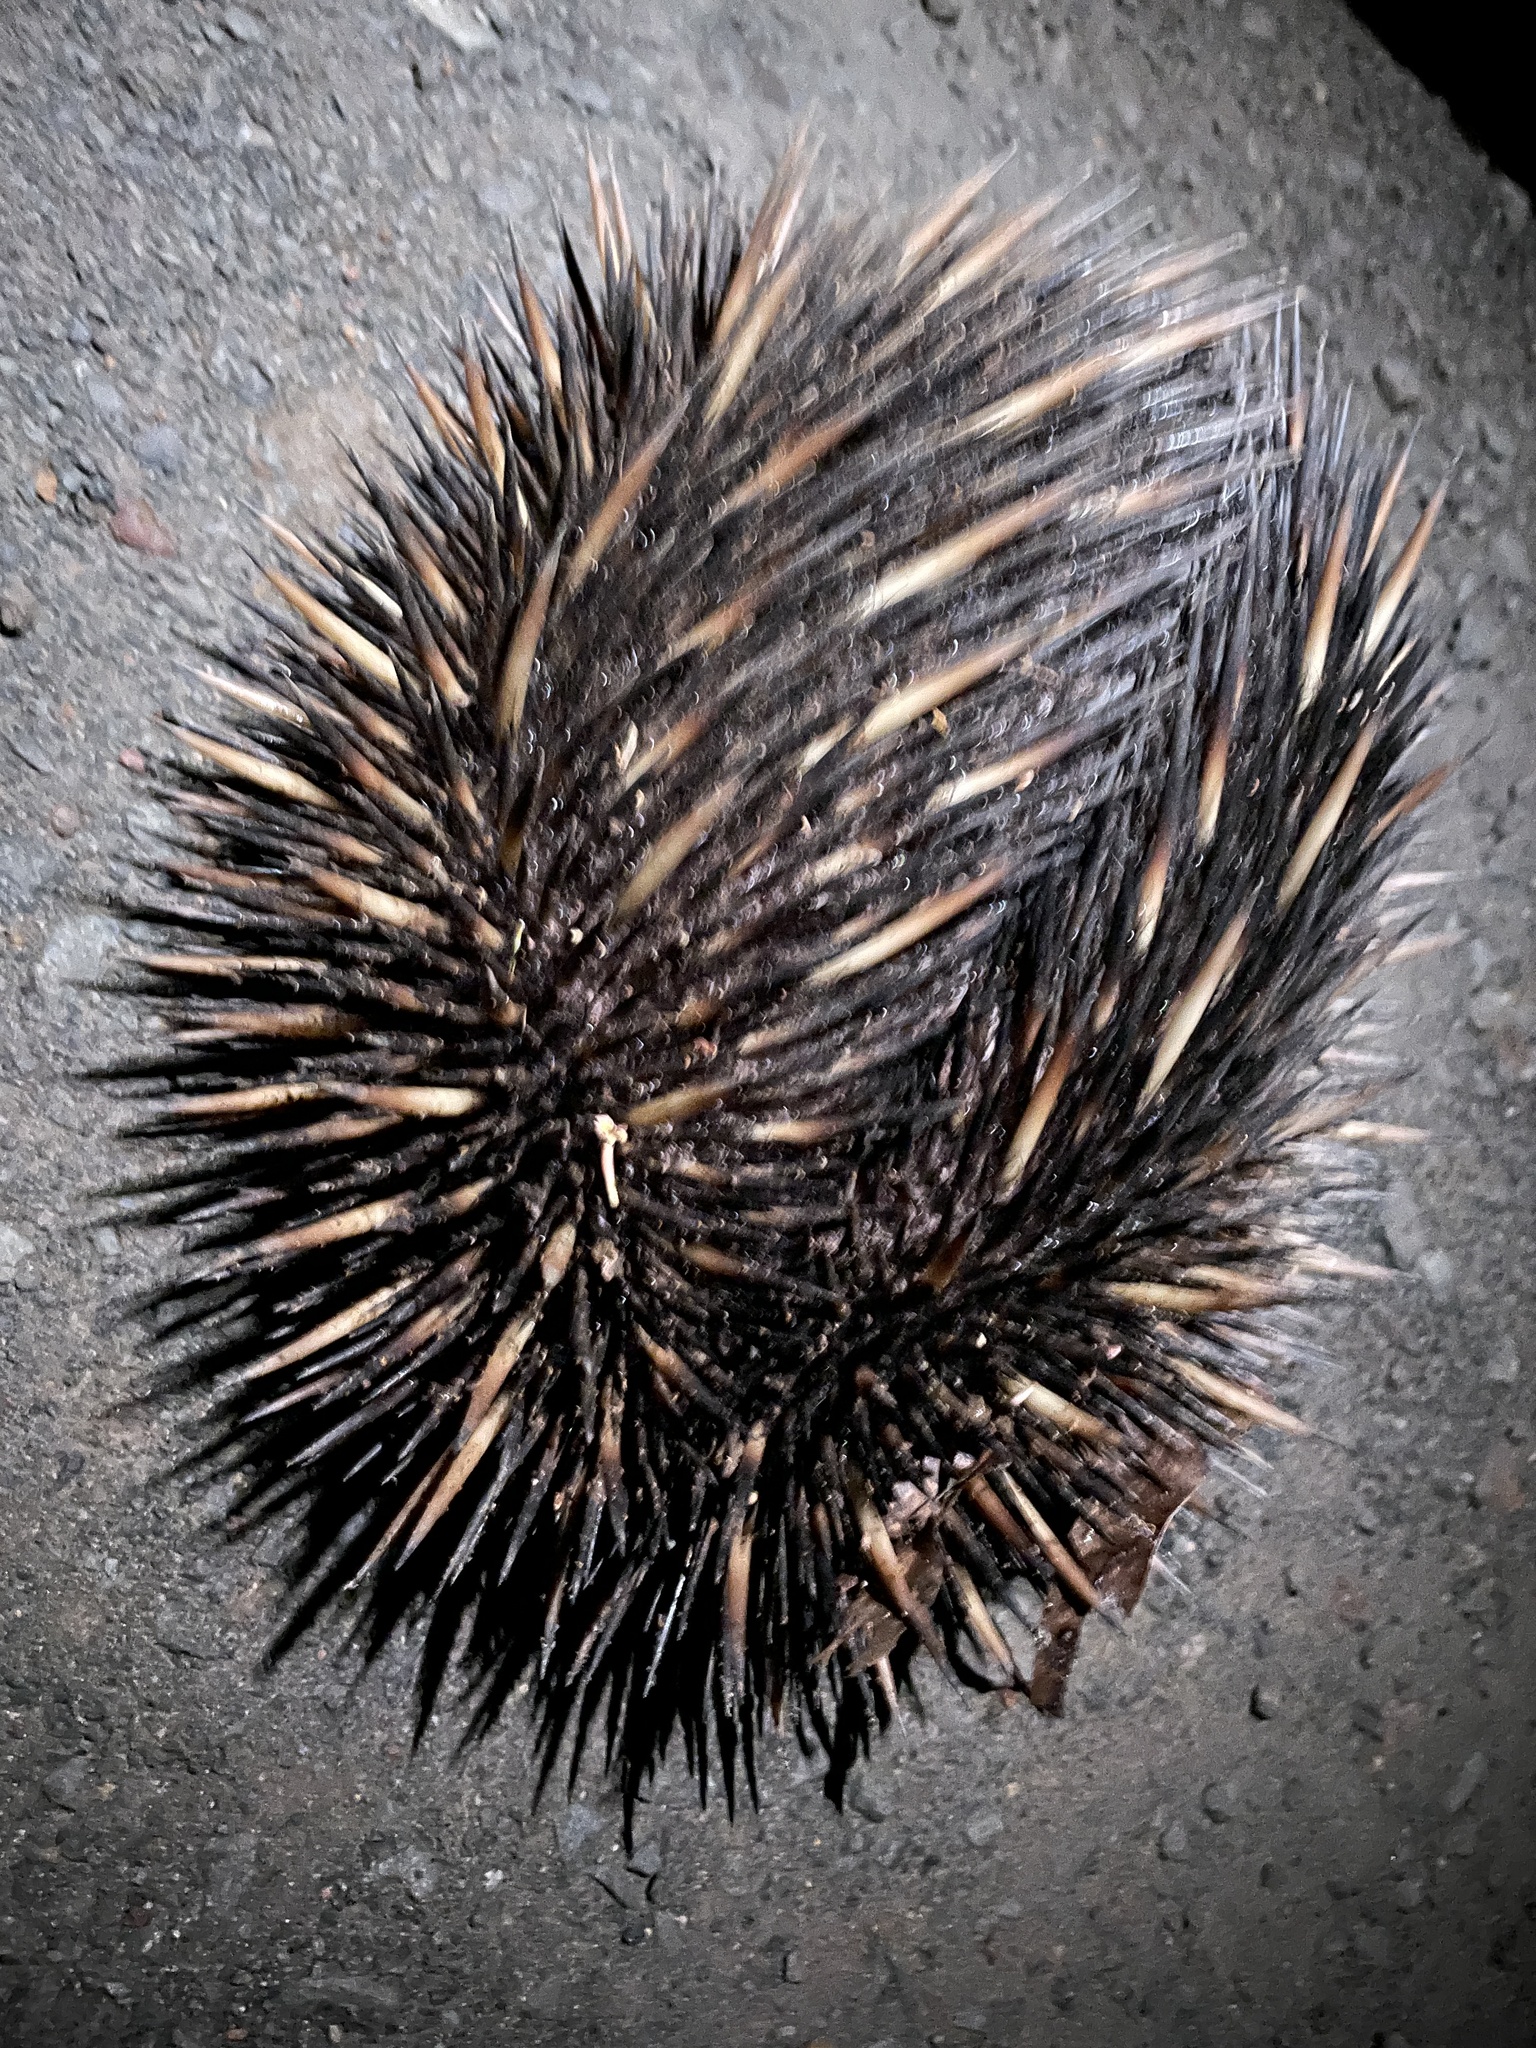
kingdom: Animalia
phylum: Chordata
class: Mammalia
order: Monotremata
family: Tachyglossidae
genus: Tachyglossus
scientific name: Tachyglossus aculeatus
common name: Short-beaked echidna
